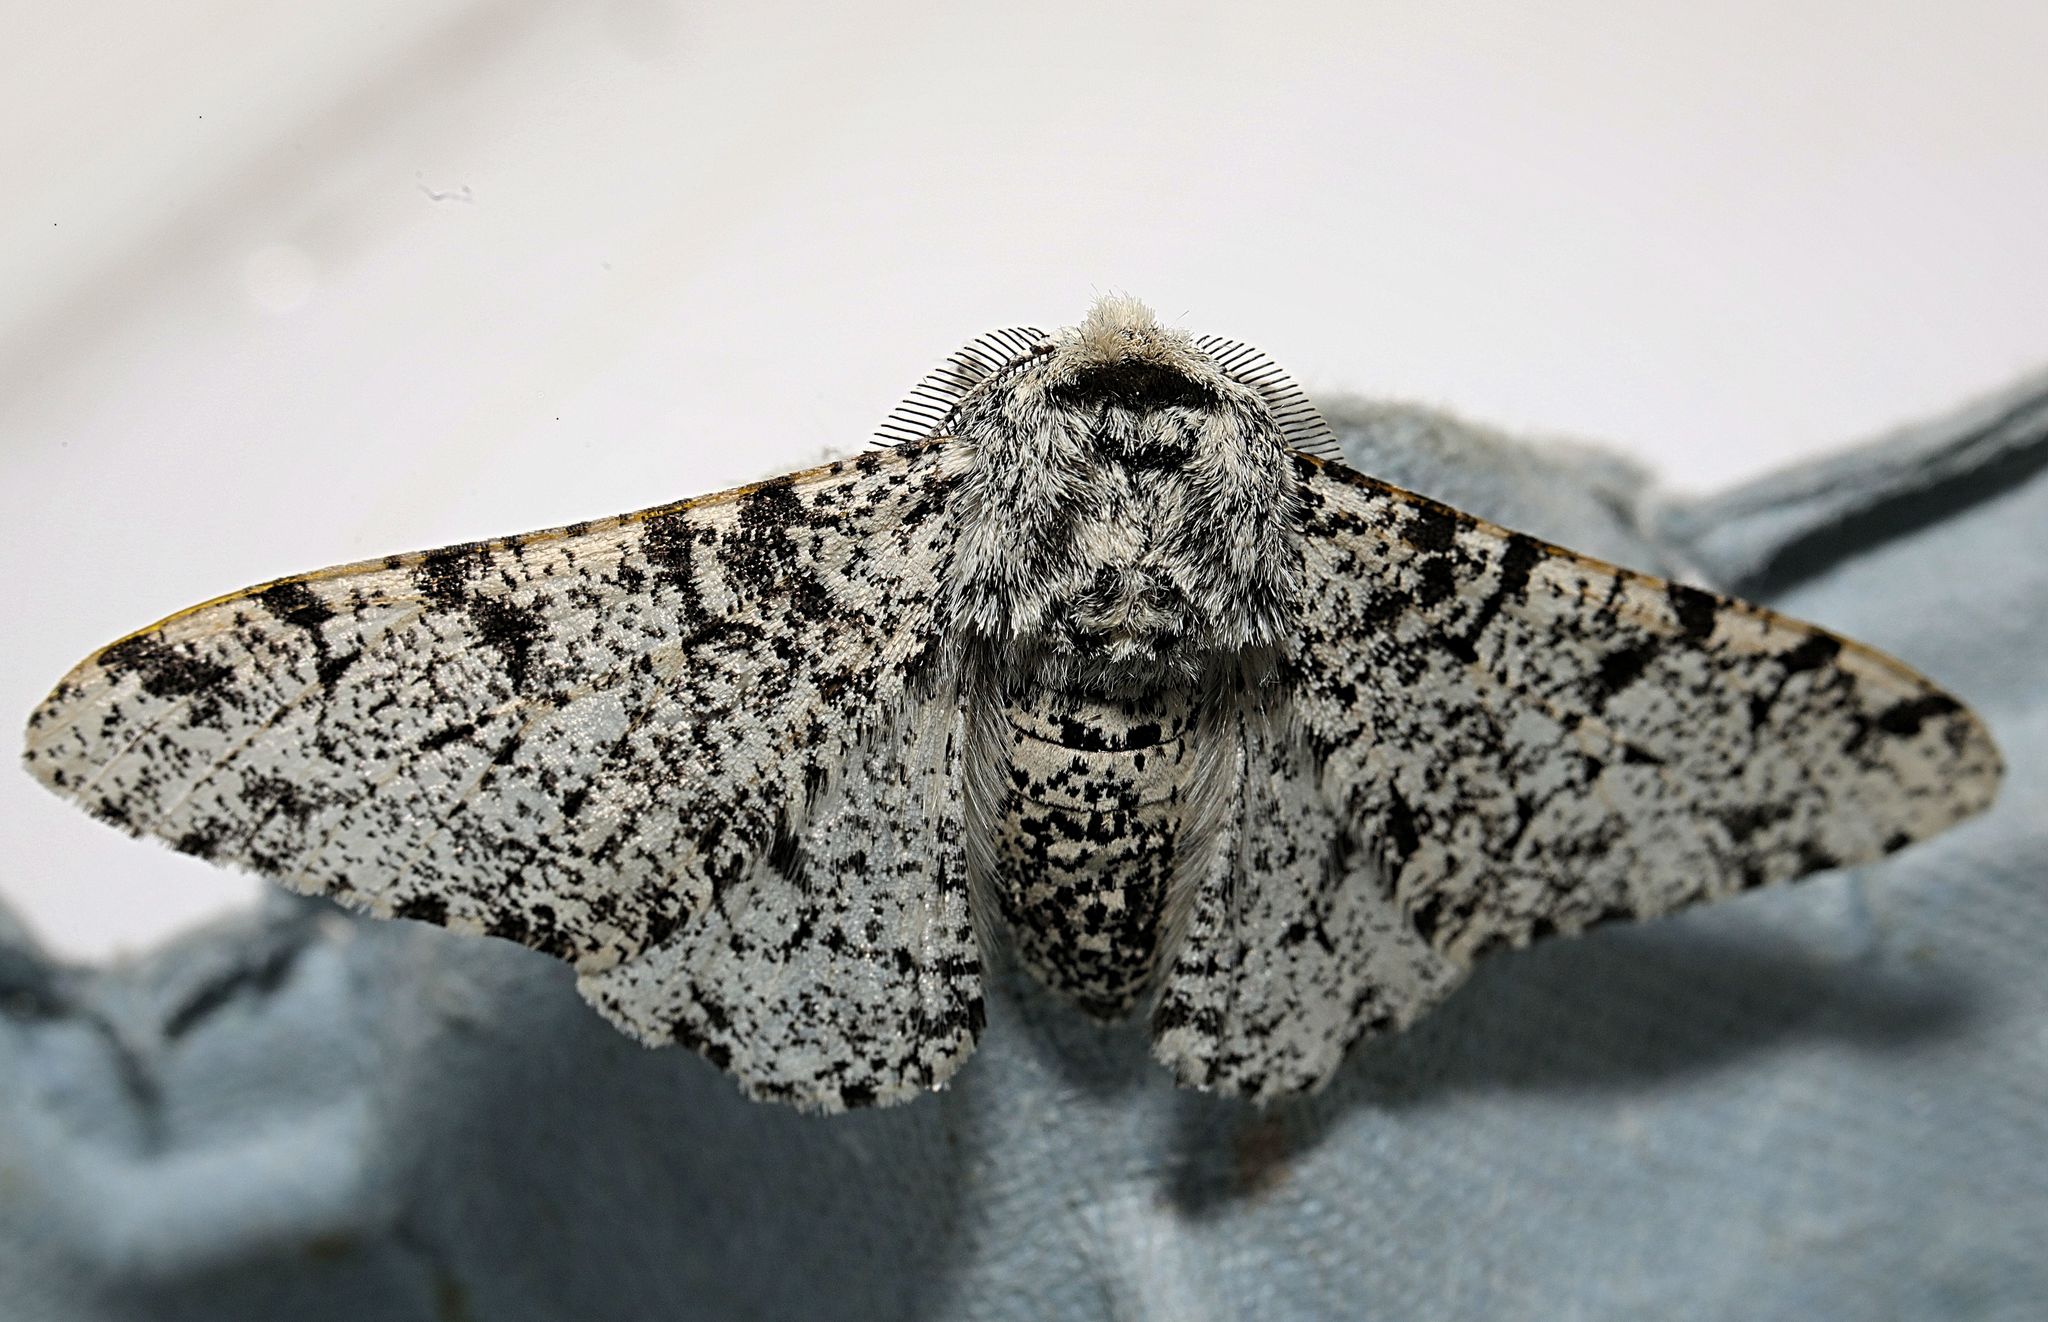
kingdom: Animalia
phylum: Arthropoda
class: Insecta
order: Lepidoptera
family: Geometridae
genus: Biston
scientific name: Biston betularia
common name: Peppered moth
